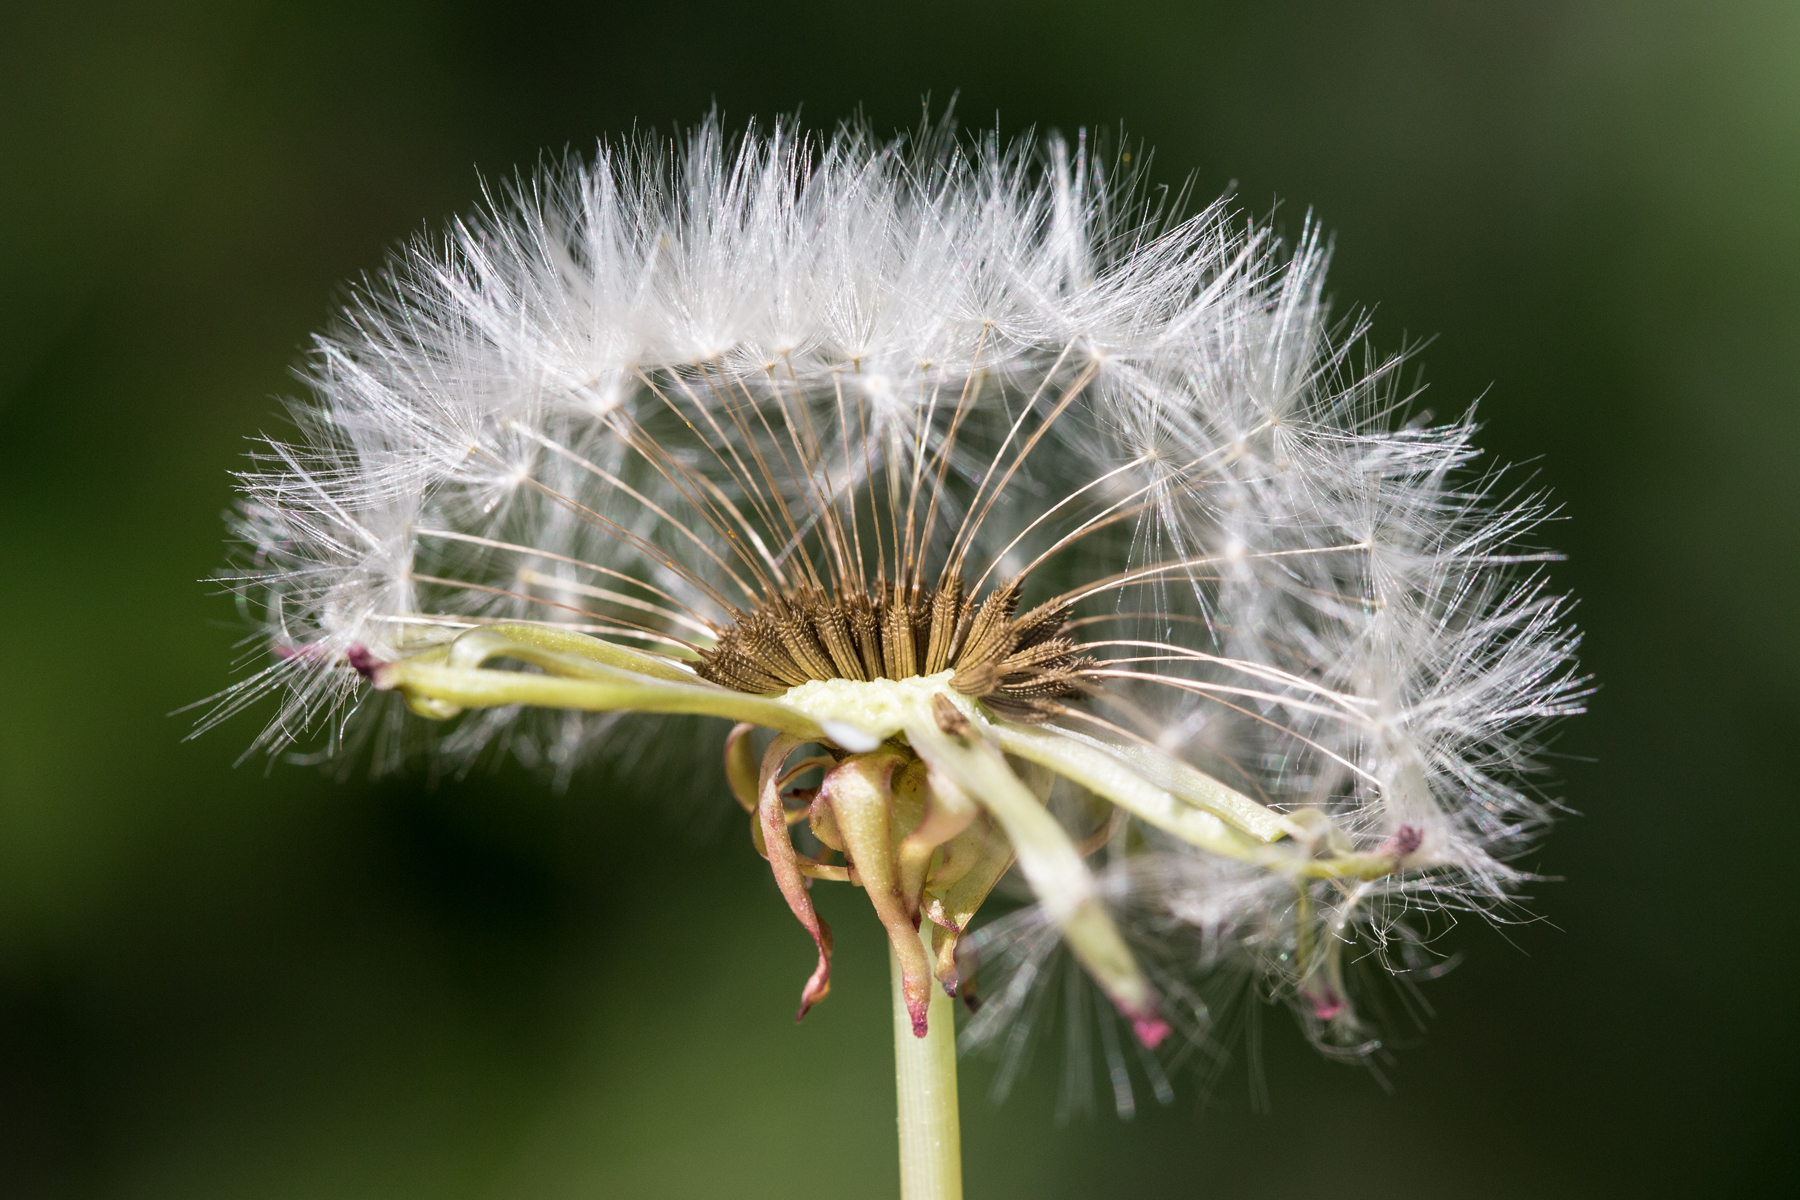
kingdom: Plantae
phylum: Tracheophyta
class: Magnoliopsida
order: Asterales
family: Asteraceae
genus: Taraxacum
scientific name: Taraxacum officinale
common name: Common dandelion
